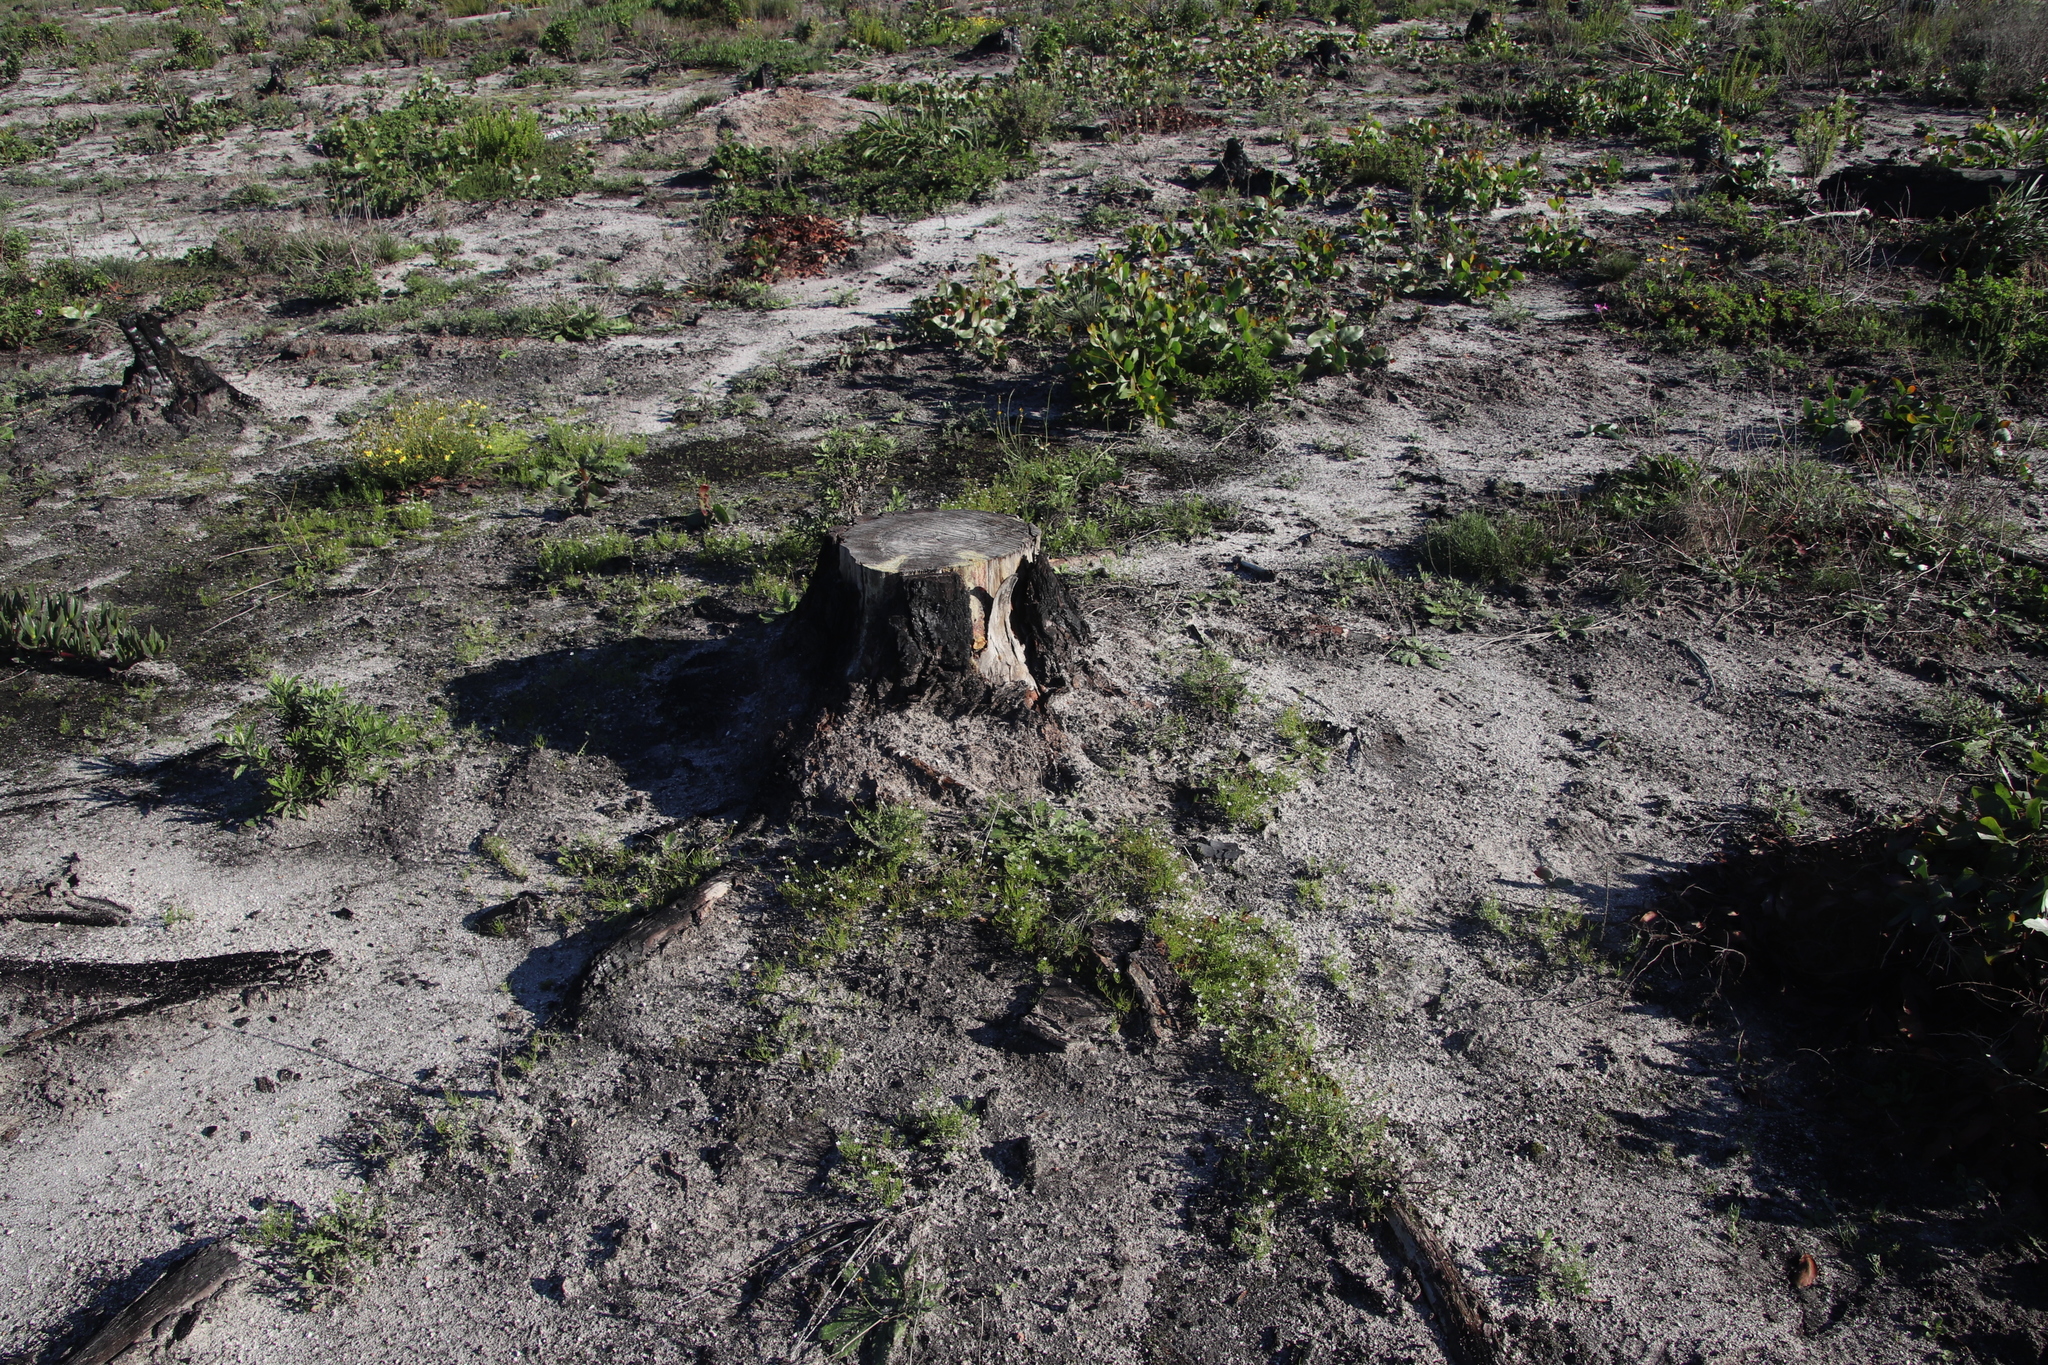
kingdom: Plantae
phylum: Tracheophyta
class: Magnoliopsida
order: Caryophyllales
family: Caryophyllaceae
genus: Spergula
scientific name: Spergula arvensis
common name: Corn spurrey
